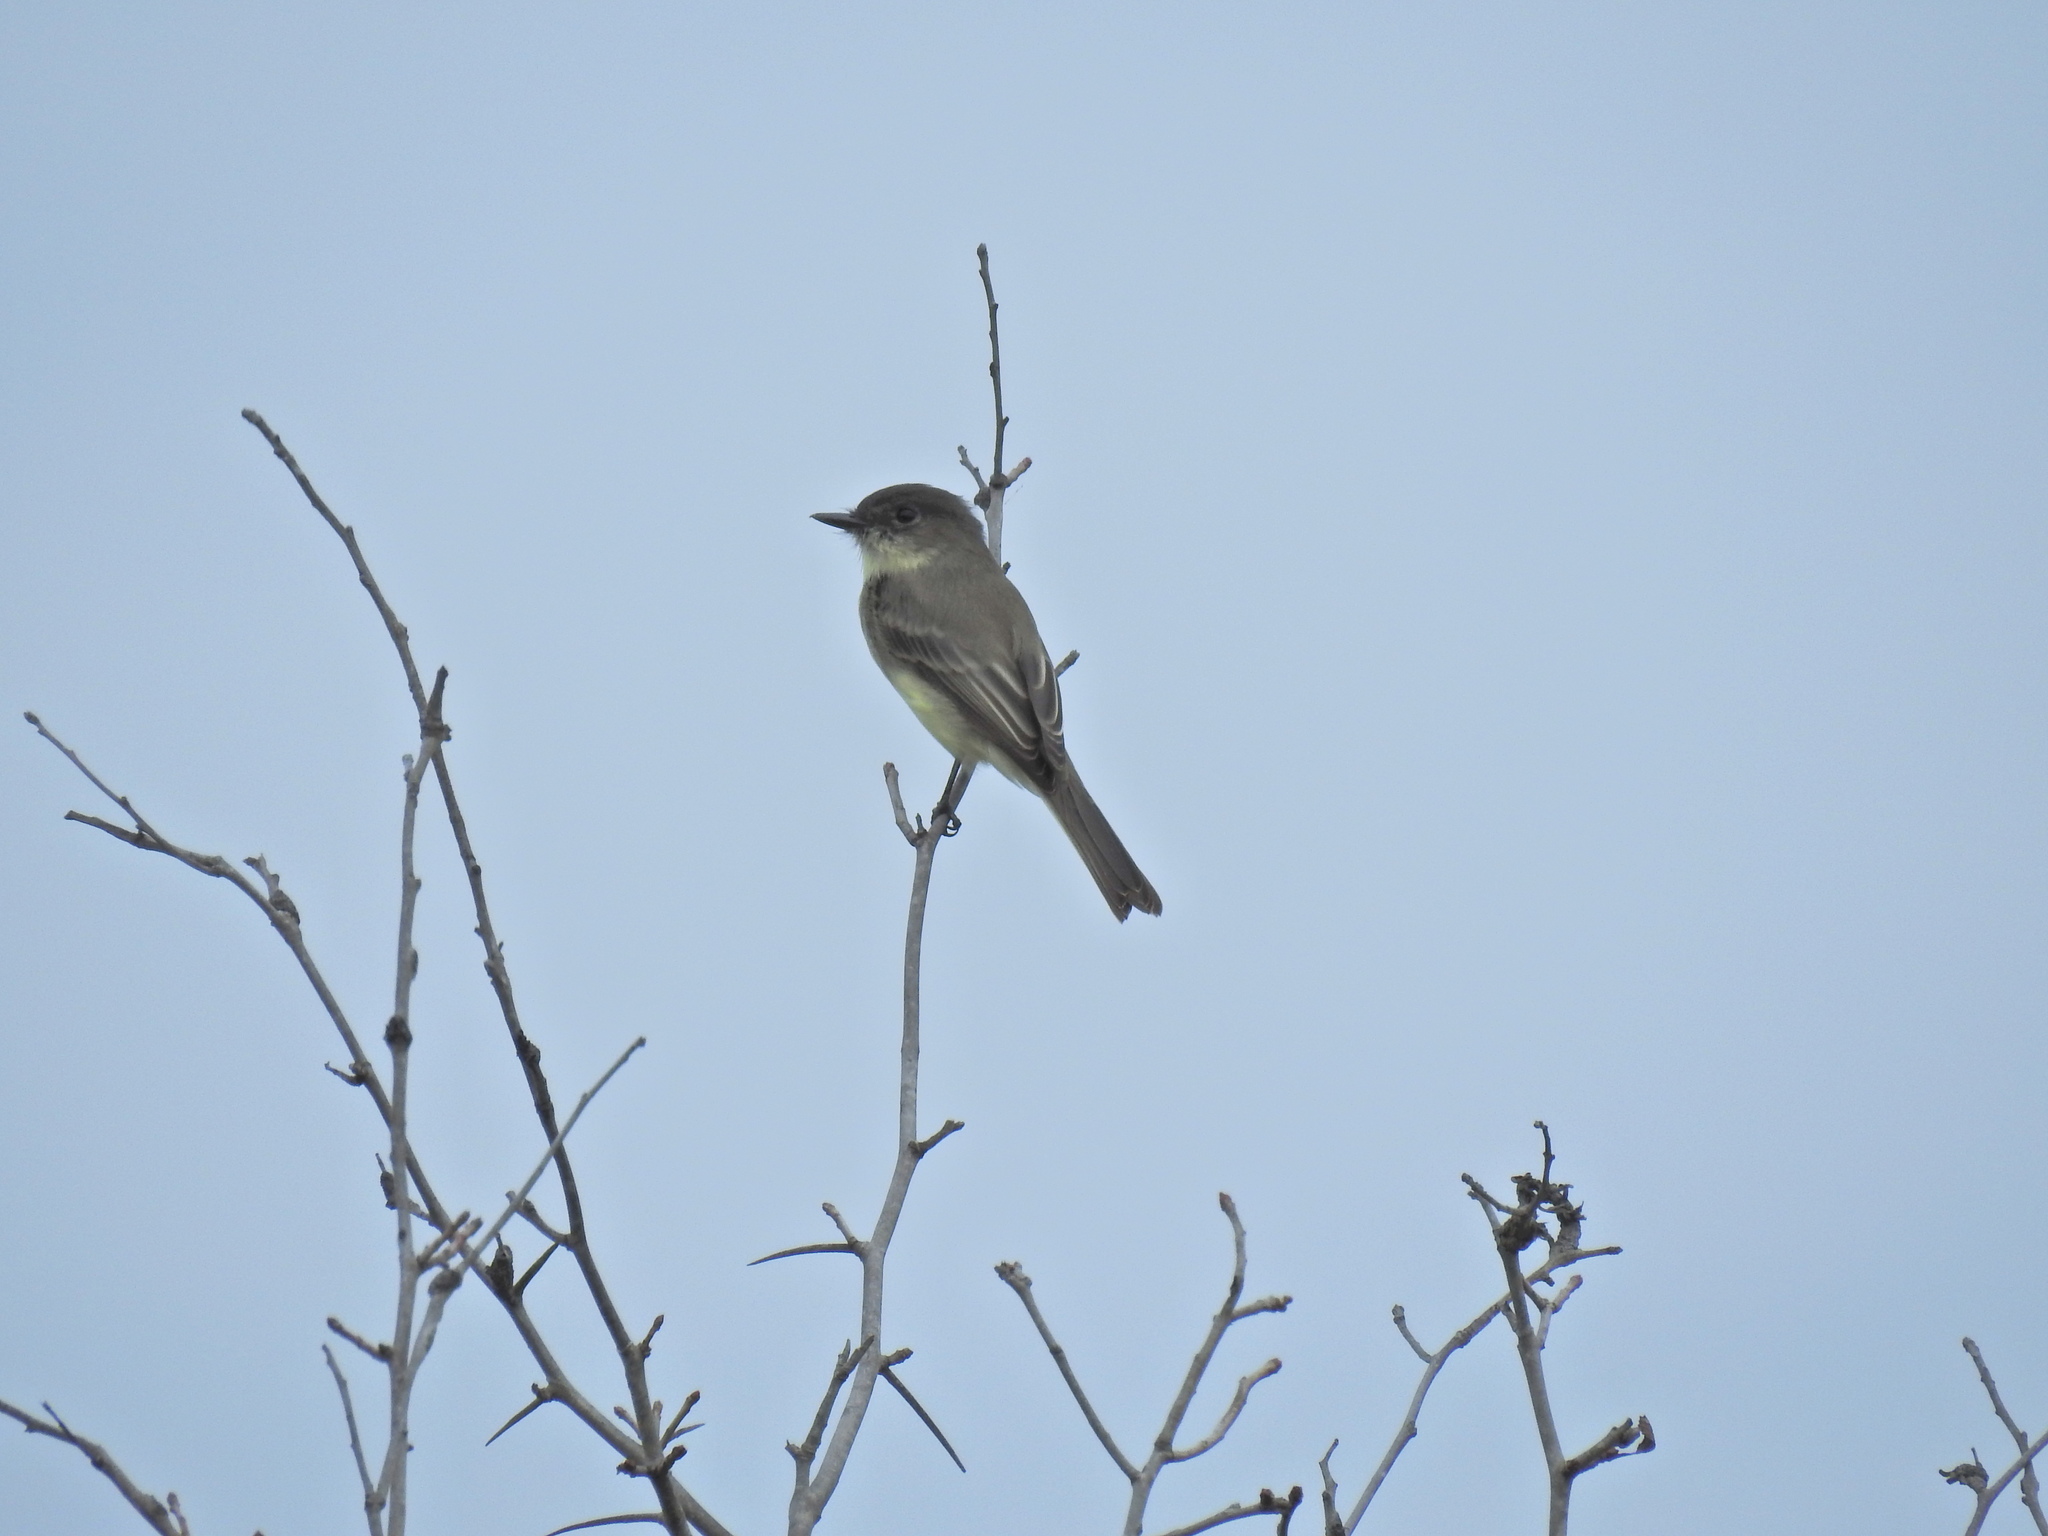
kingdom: Animalia
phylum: Chordata
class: Aves
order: Passeriformes
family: Tyrannidae
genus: Sayornis
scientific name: Sayornis phoebe
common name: Eastern phoebe
